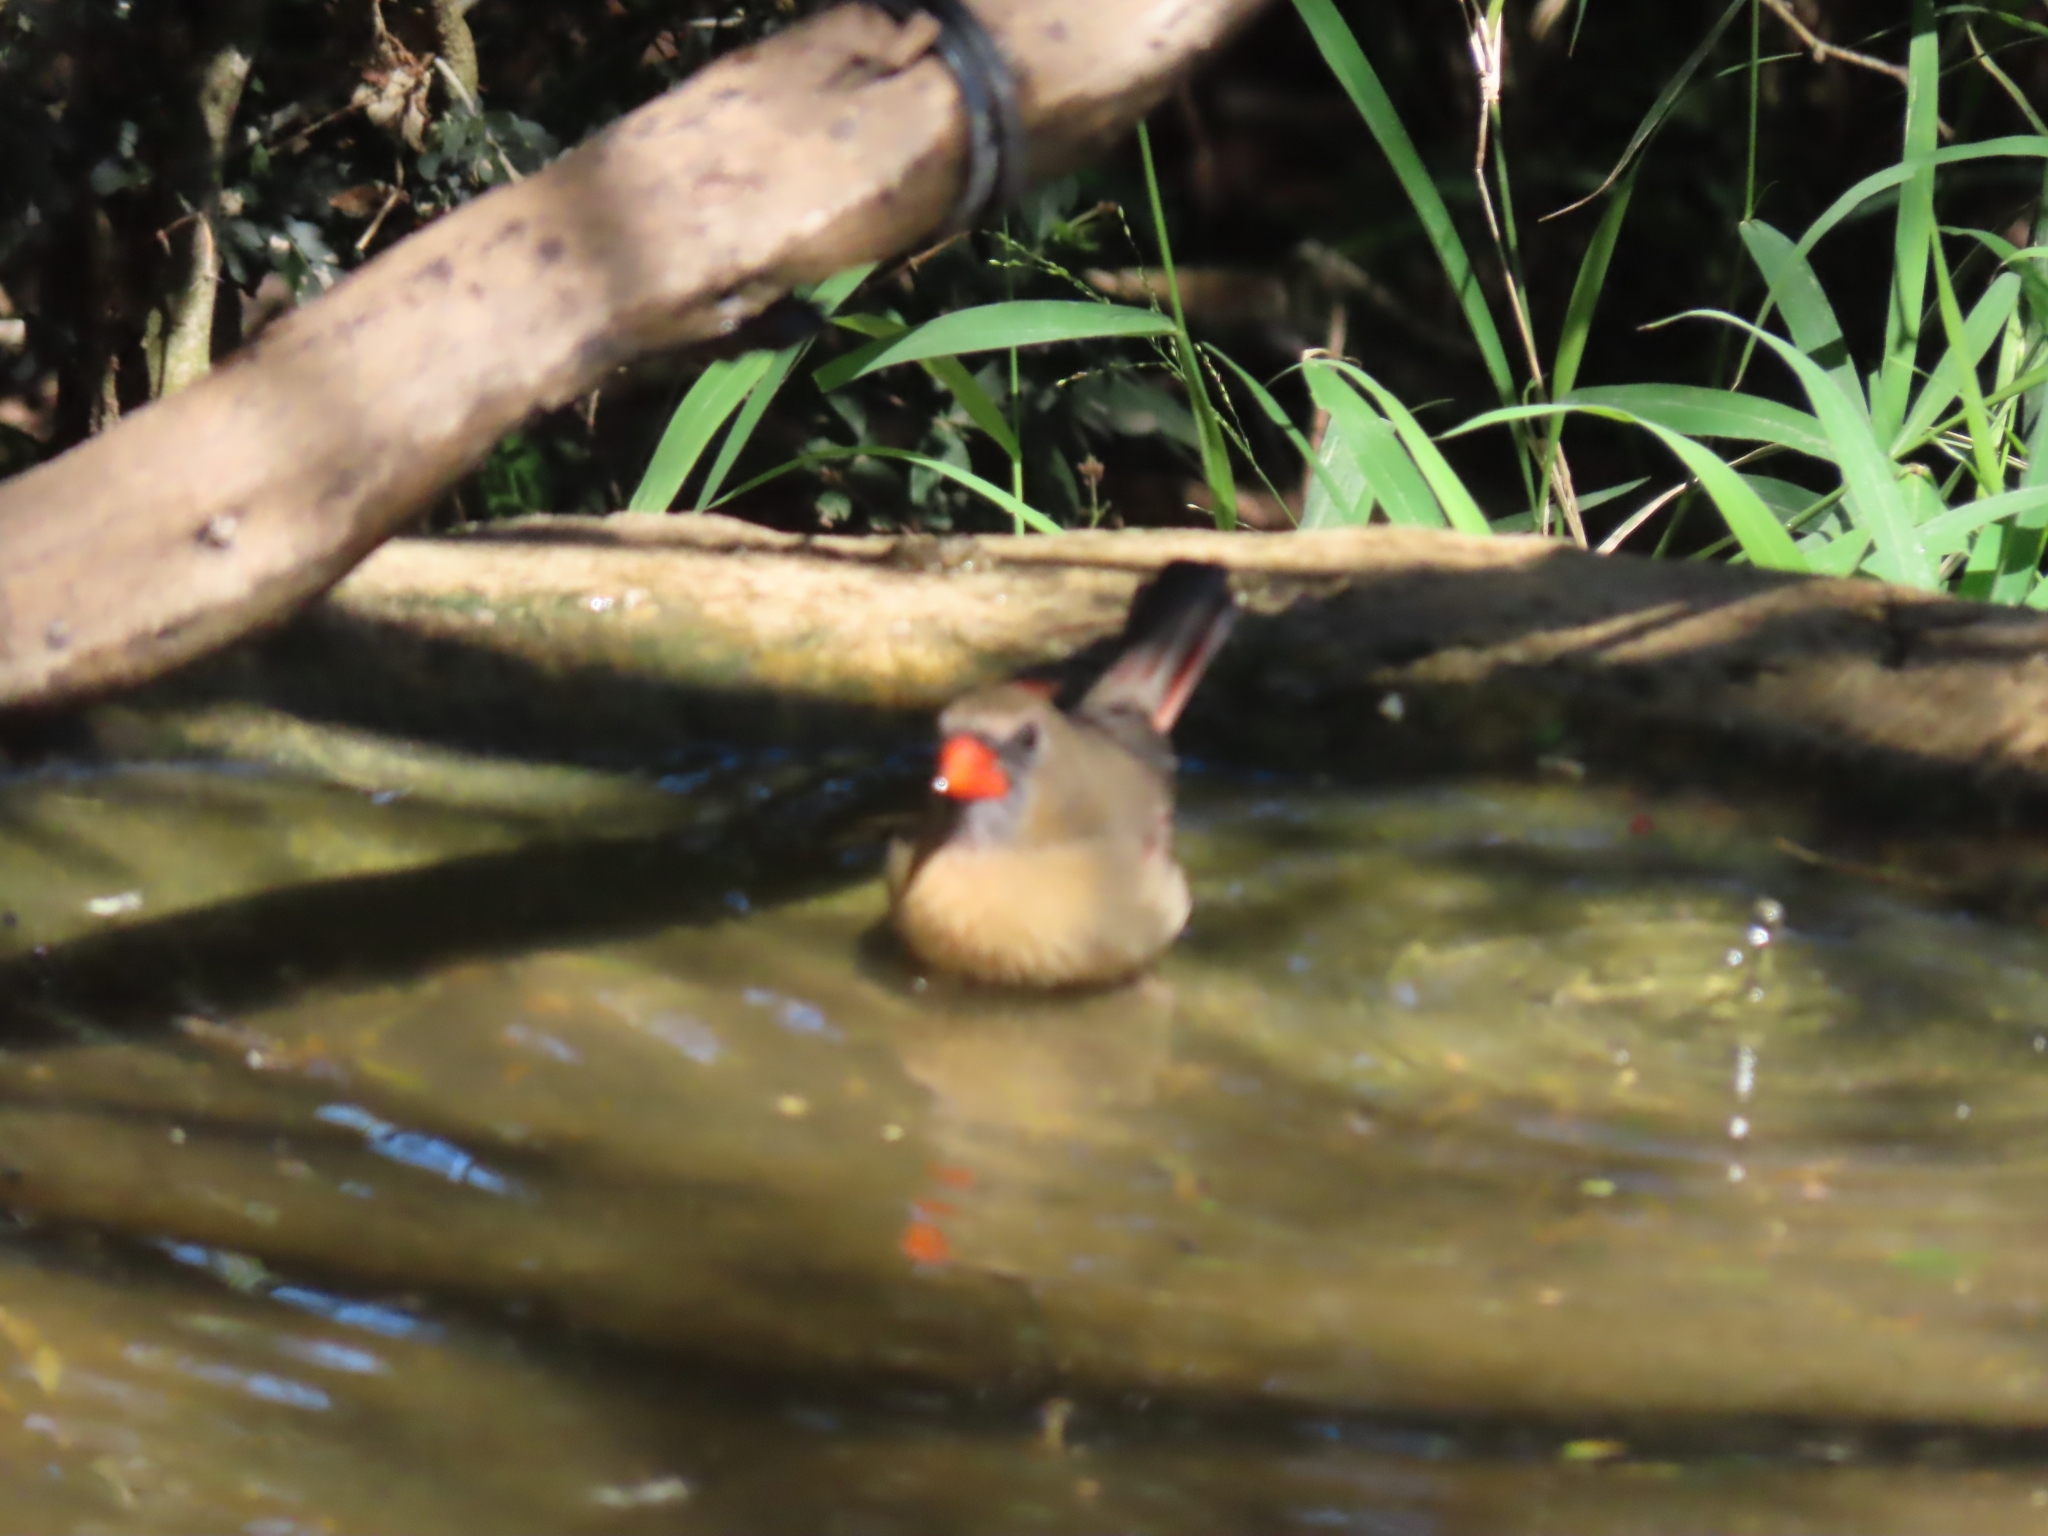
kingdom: Animalia
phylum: Chordata
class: Aves
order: Passeriformes
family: Cardinalidae
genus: Cardinalis
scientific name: Cardinalis cardinalis
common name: Northern cardinal
